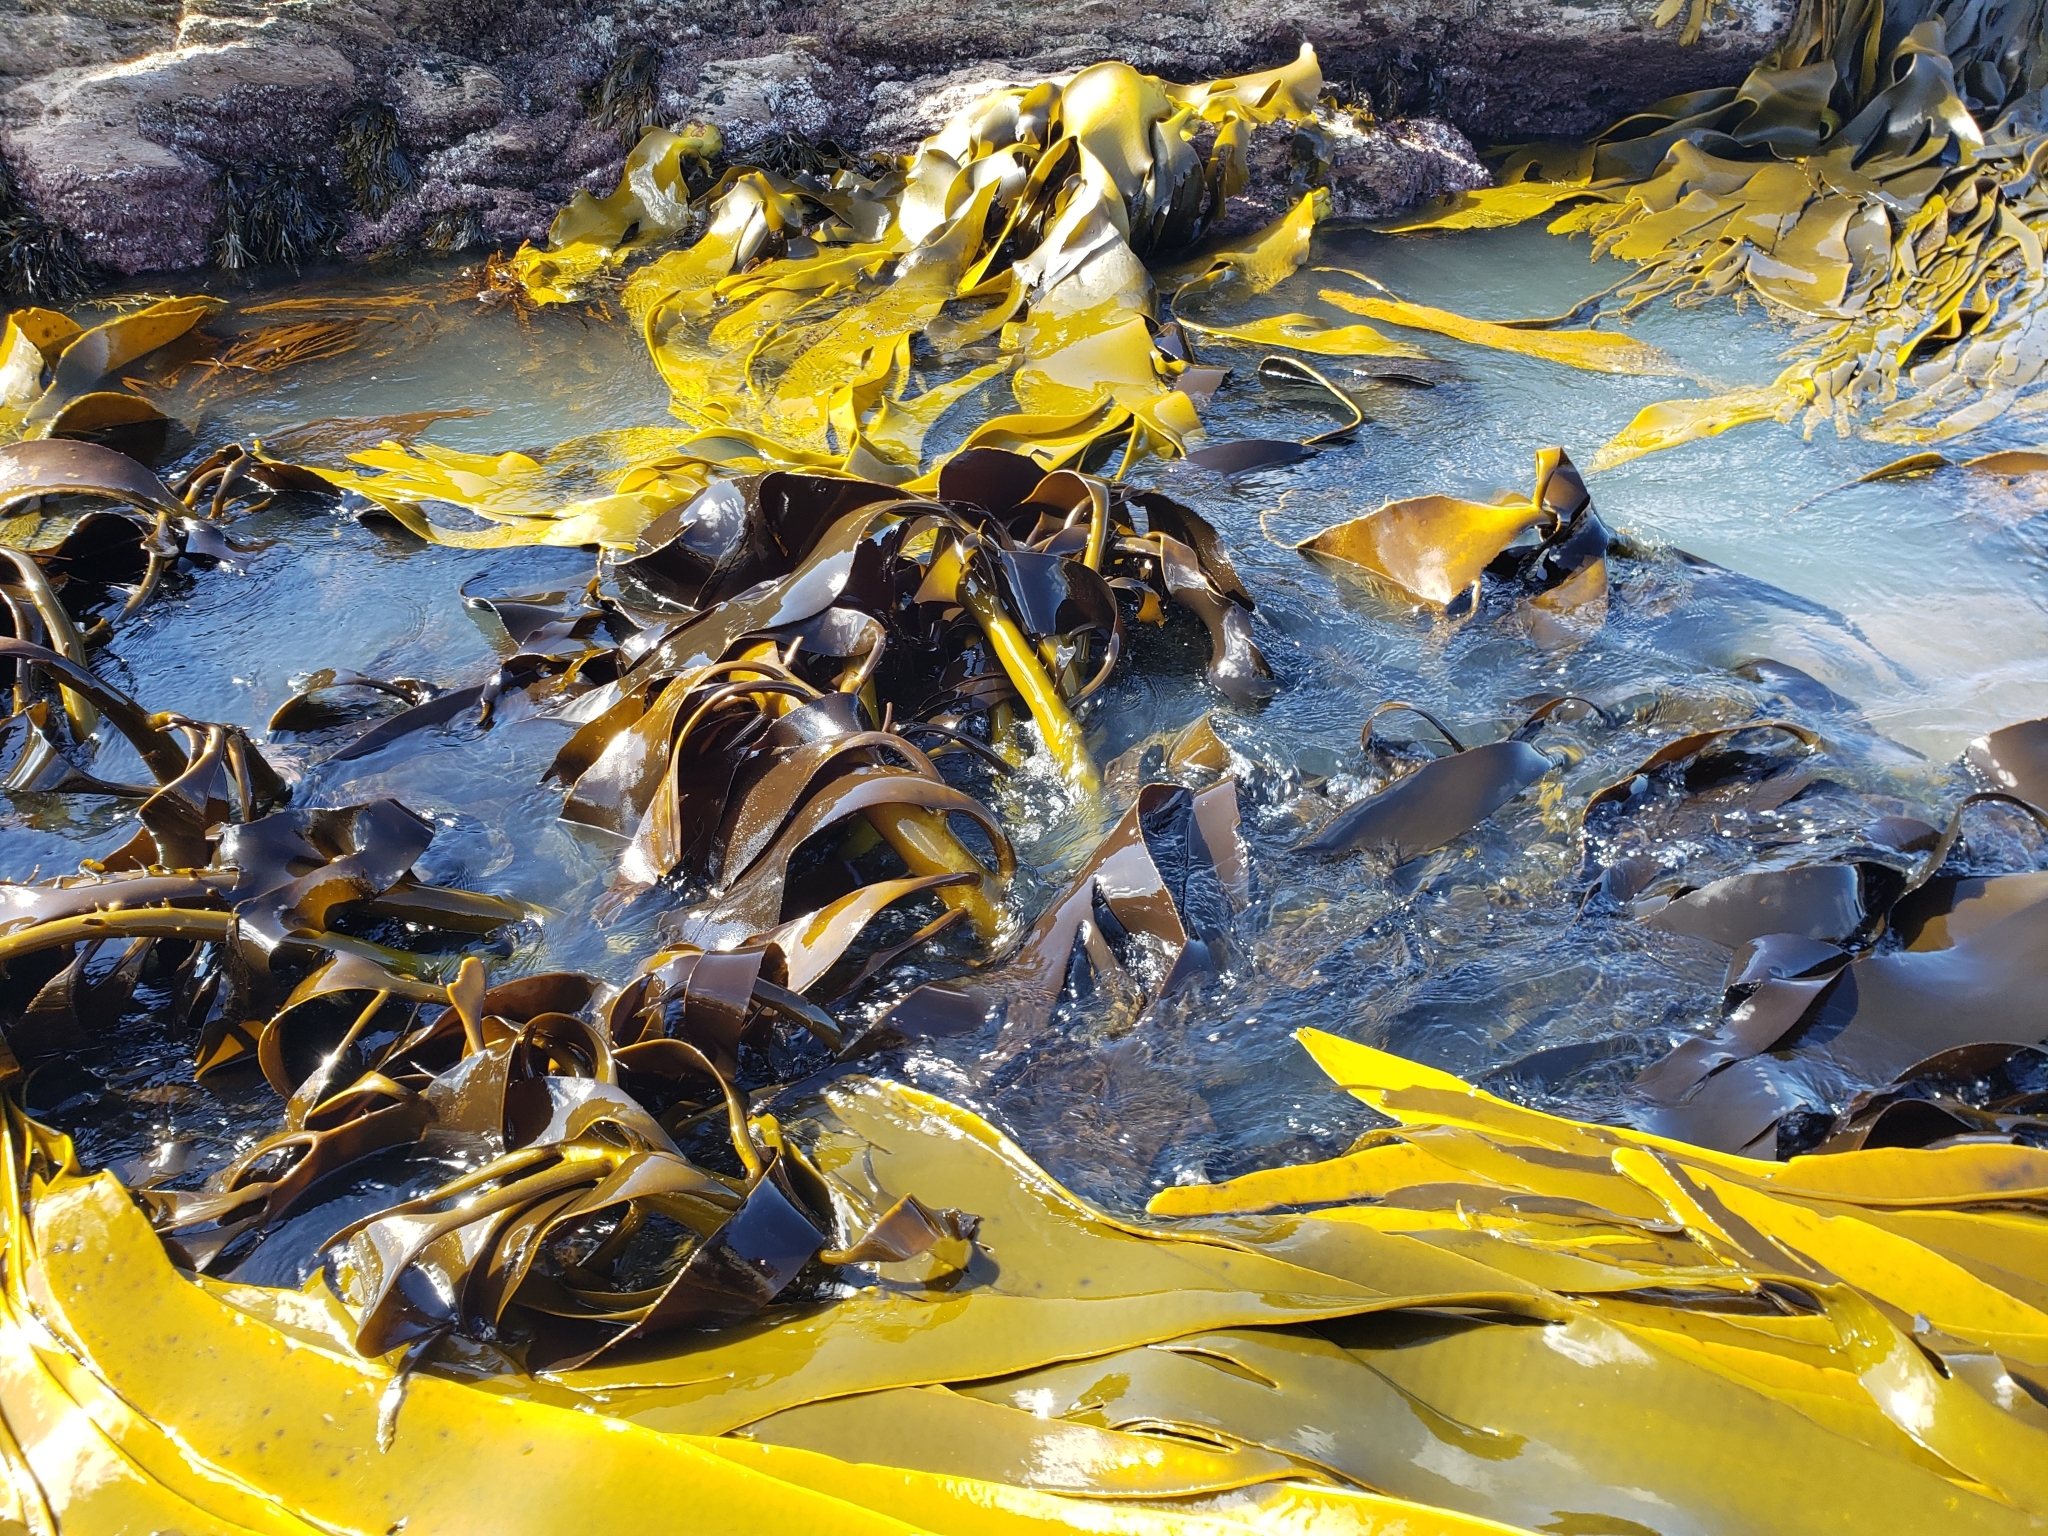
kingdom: Chromista
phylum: Ochrophyta
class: Phaeophyceae
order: Fucales
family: Durvillaeaceae
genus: Durvillaea
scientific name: Durvillaea willana
